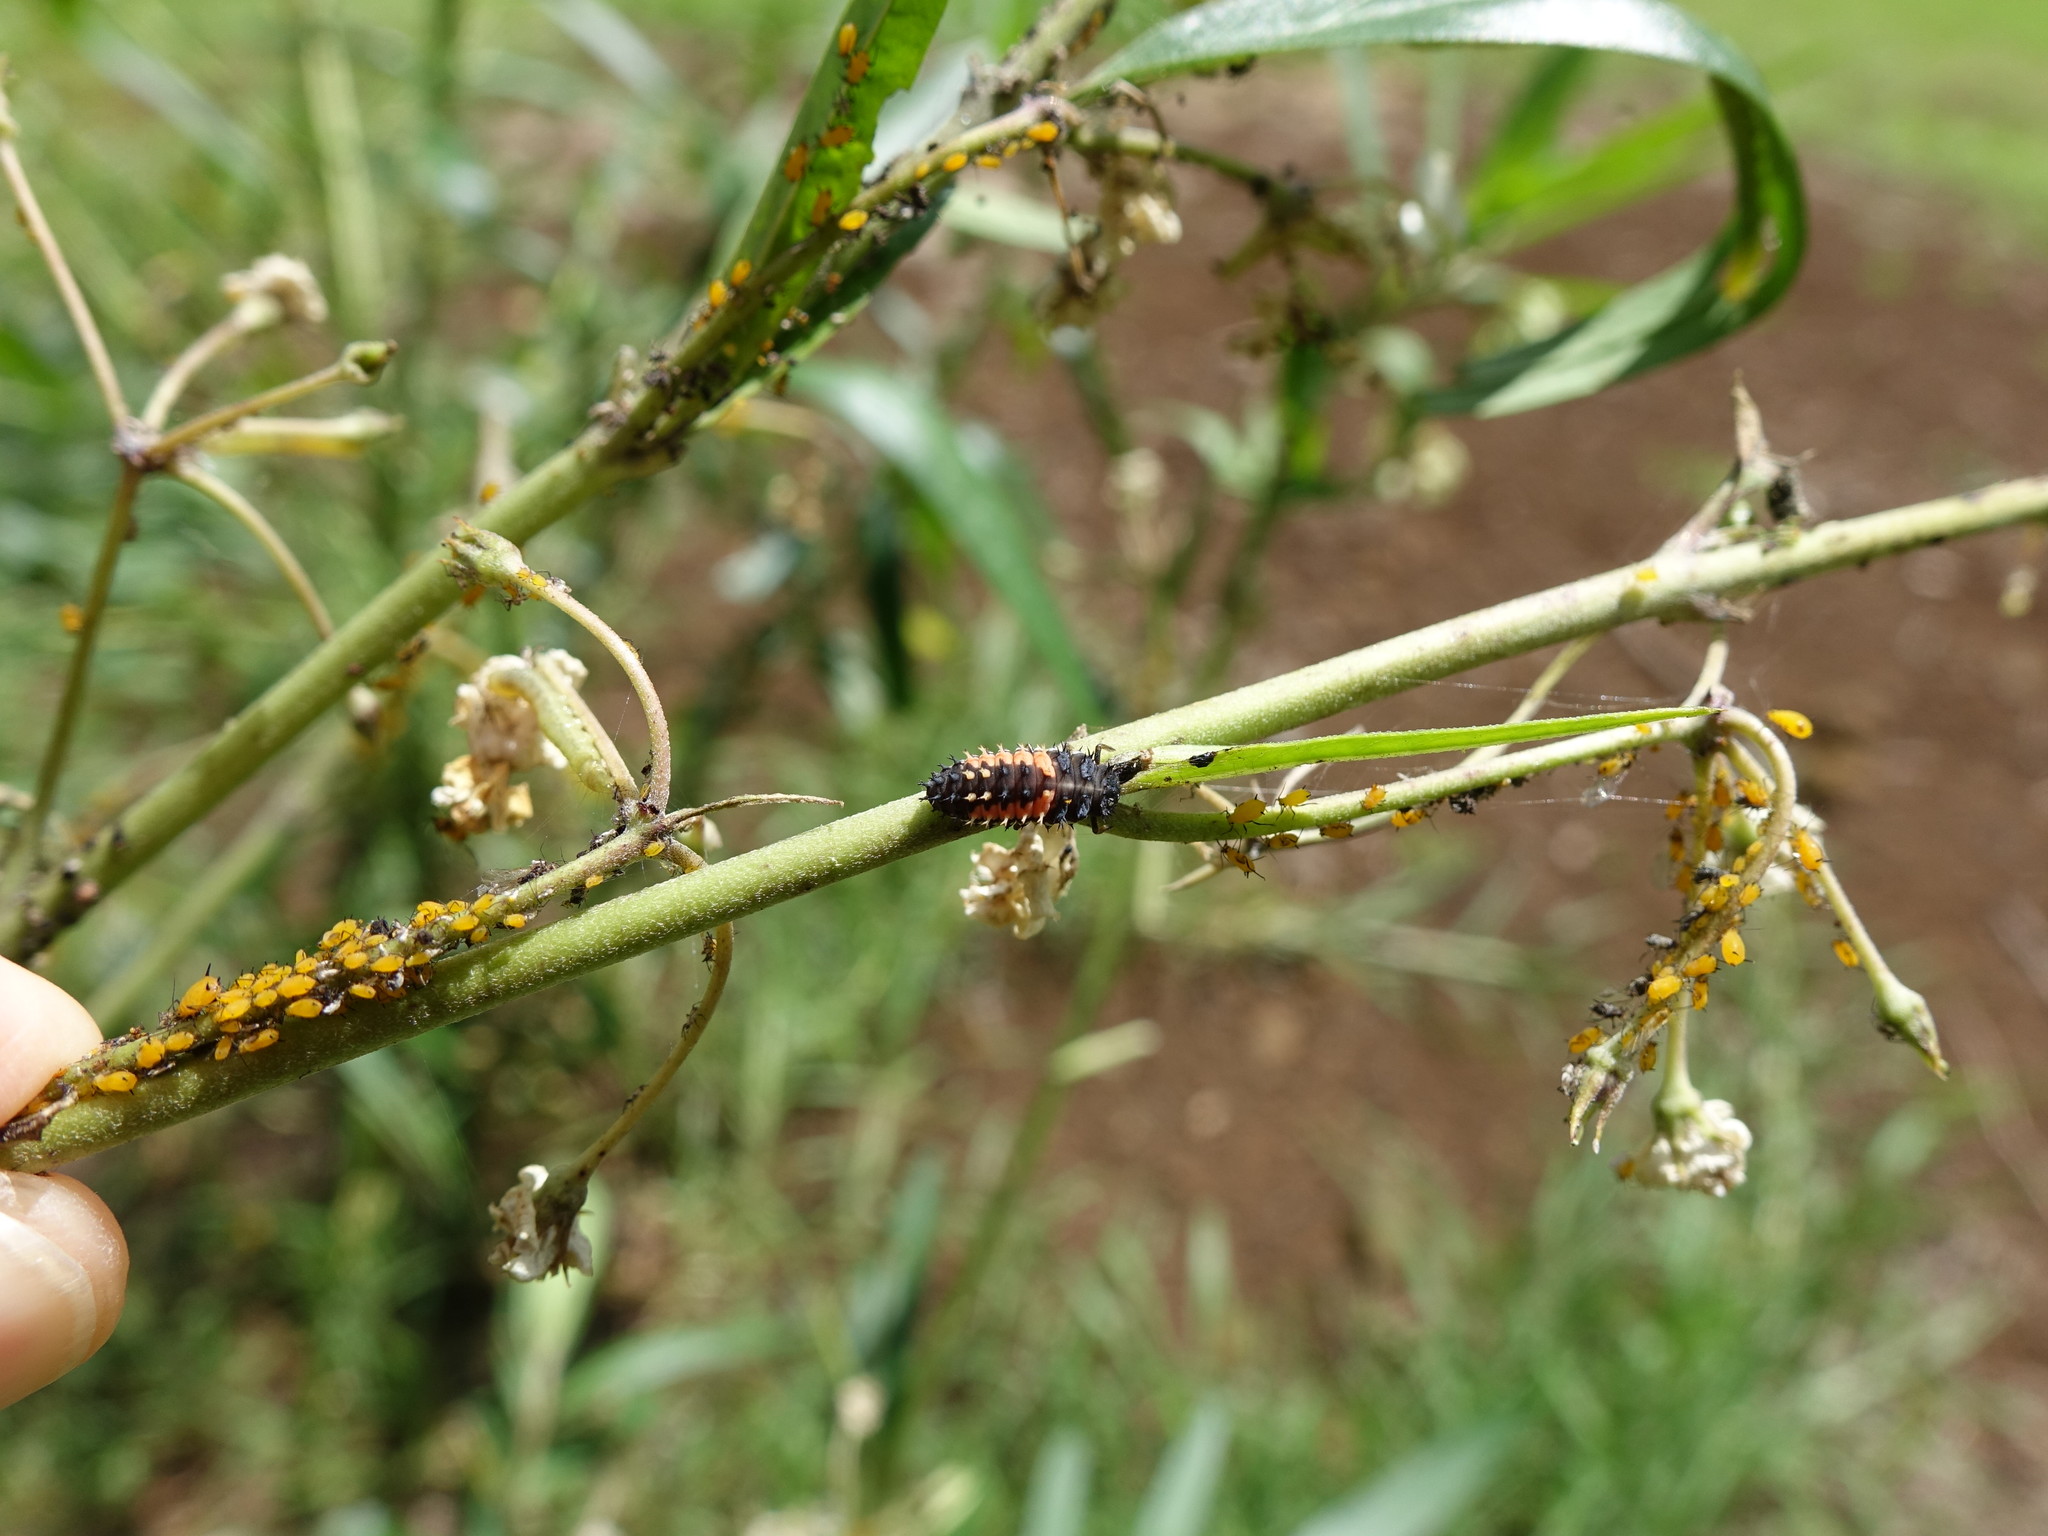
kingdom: Animalia
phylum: Arthropoda
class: Insecta
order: Coleoptera
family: Coccinellidae
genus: Harmonia
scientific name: Harmonia axyridis
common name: Harlequin ladybird
